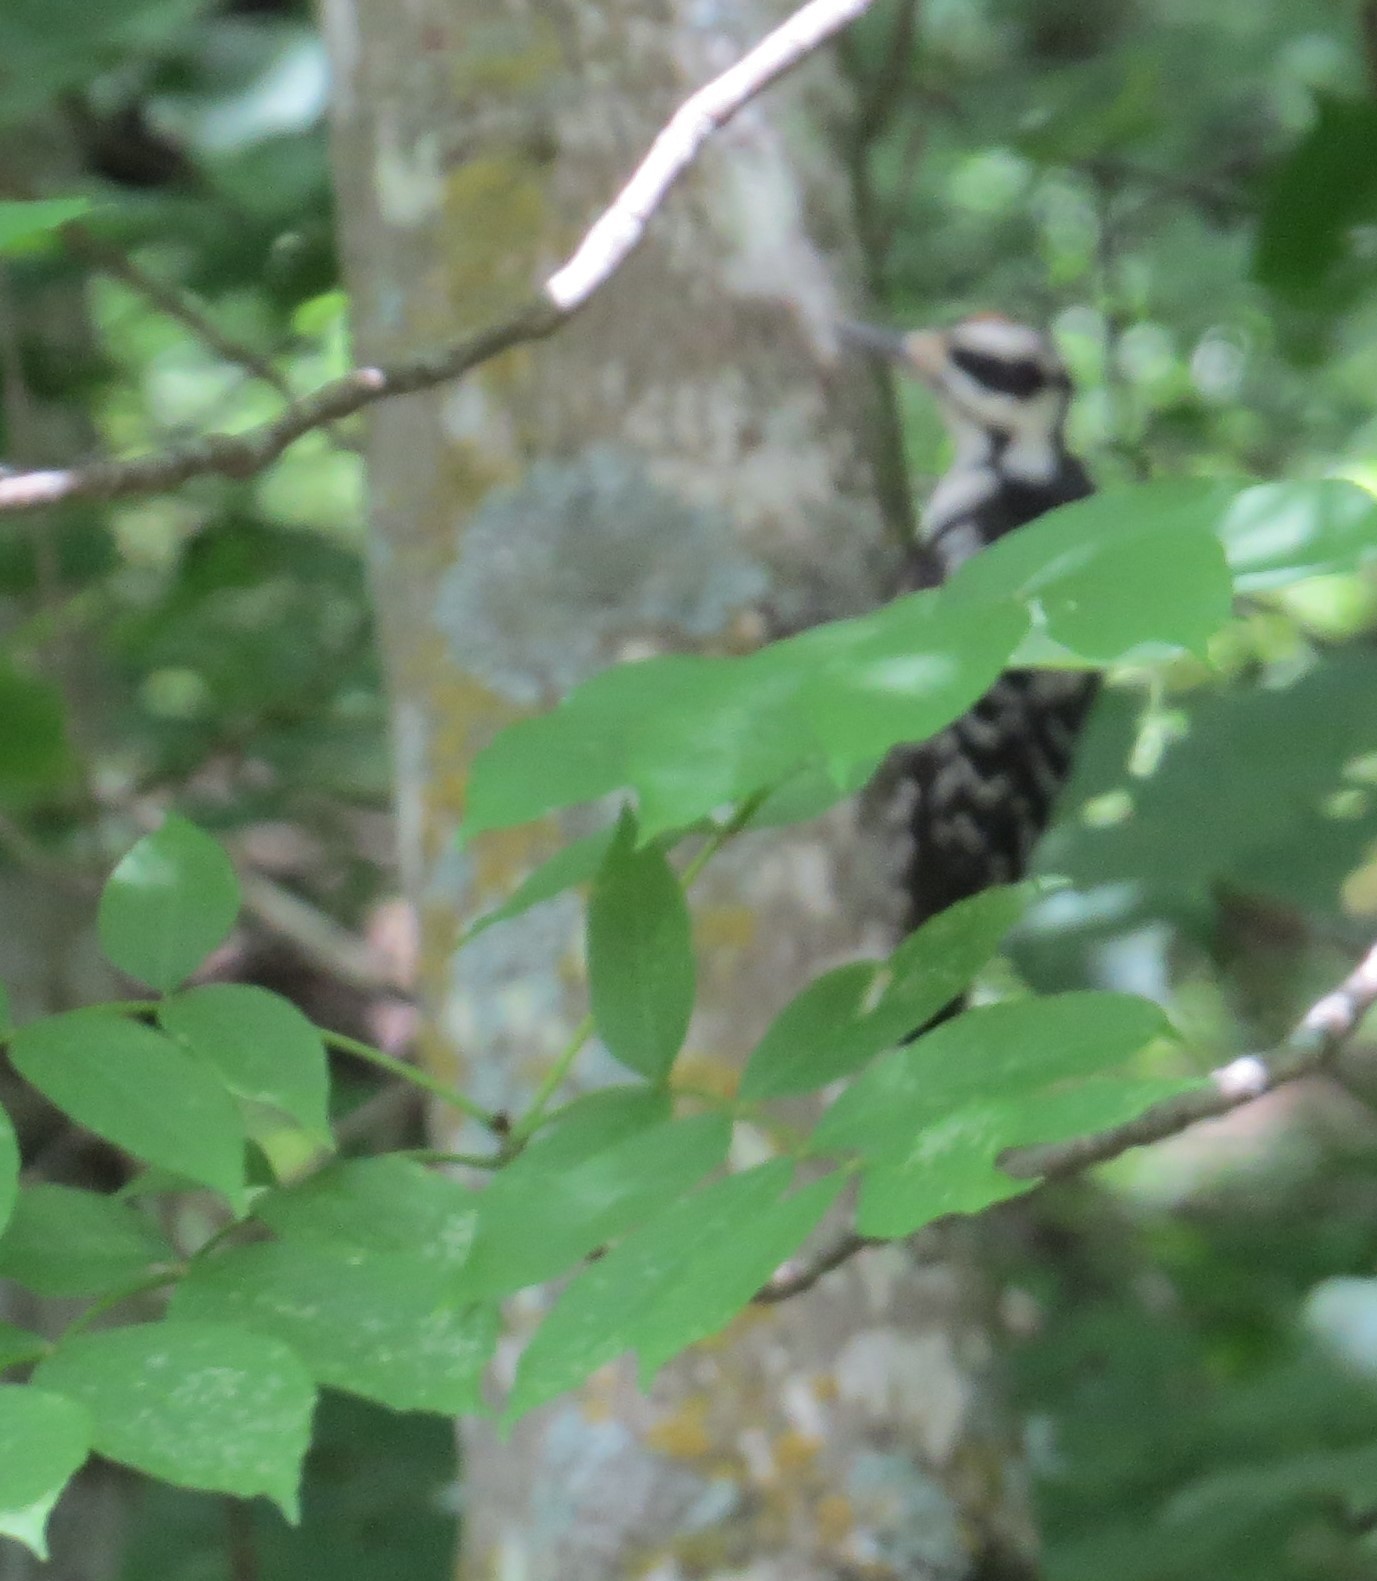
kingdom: Animalia
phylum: Chordata
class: Aves
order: Piciformes
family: Picidae
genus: Leuconotopicus
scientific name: Leuconotopicus villosus
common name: Hairy woodpecker
